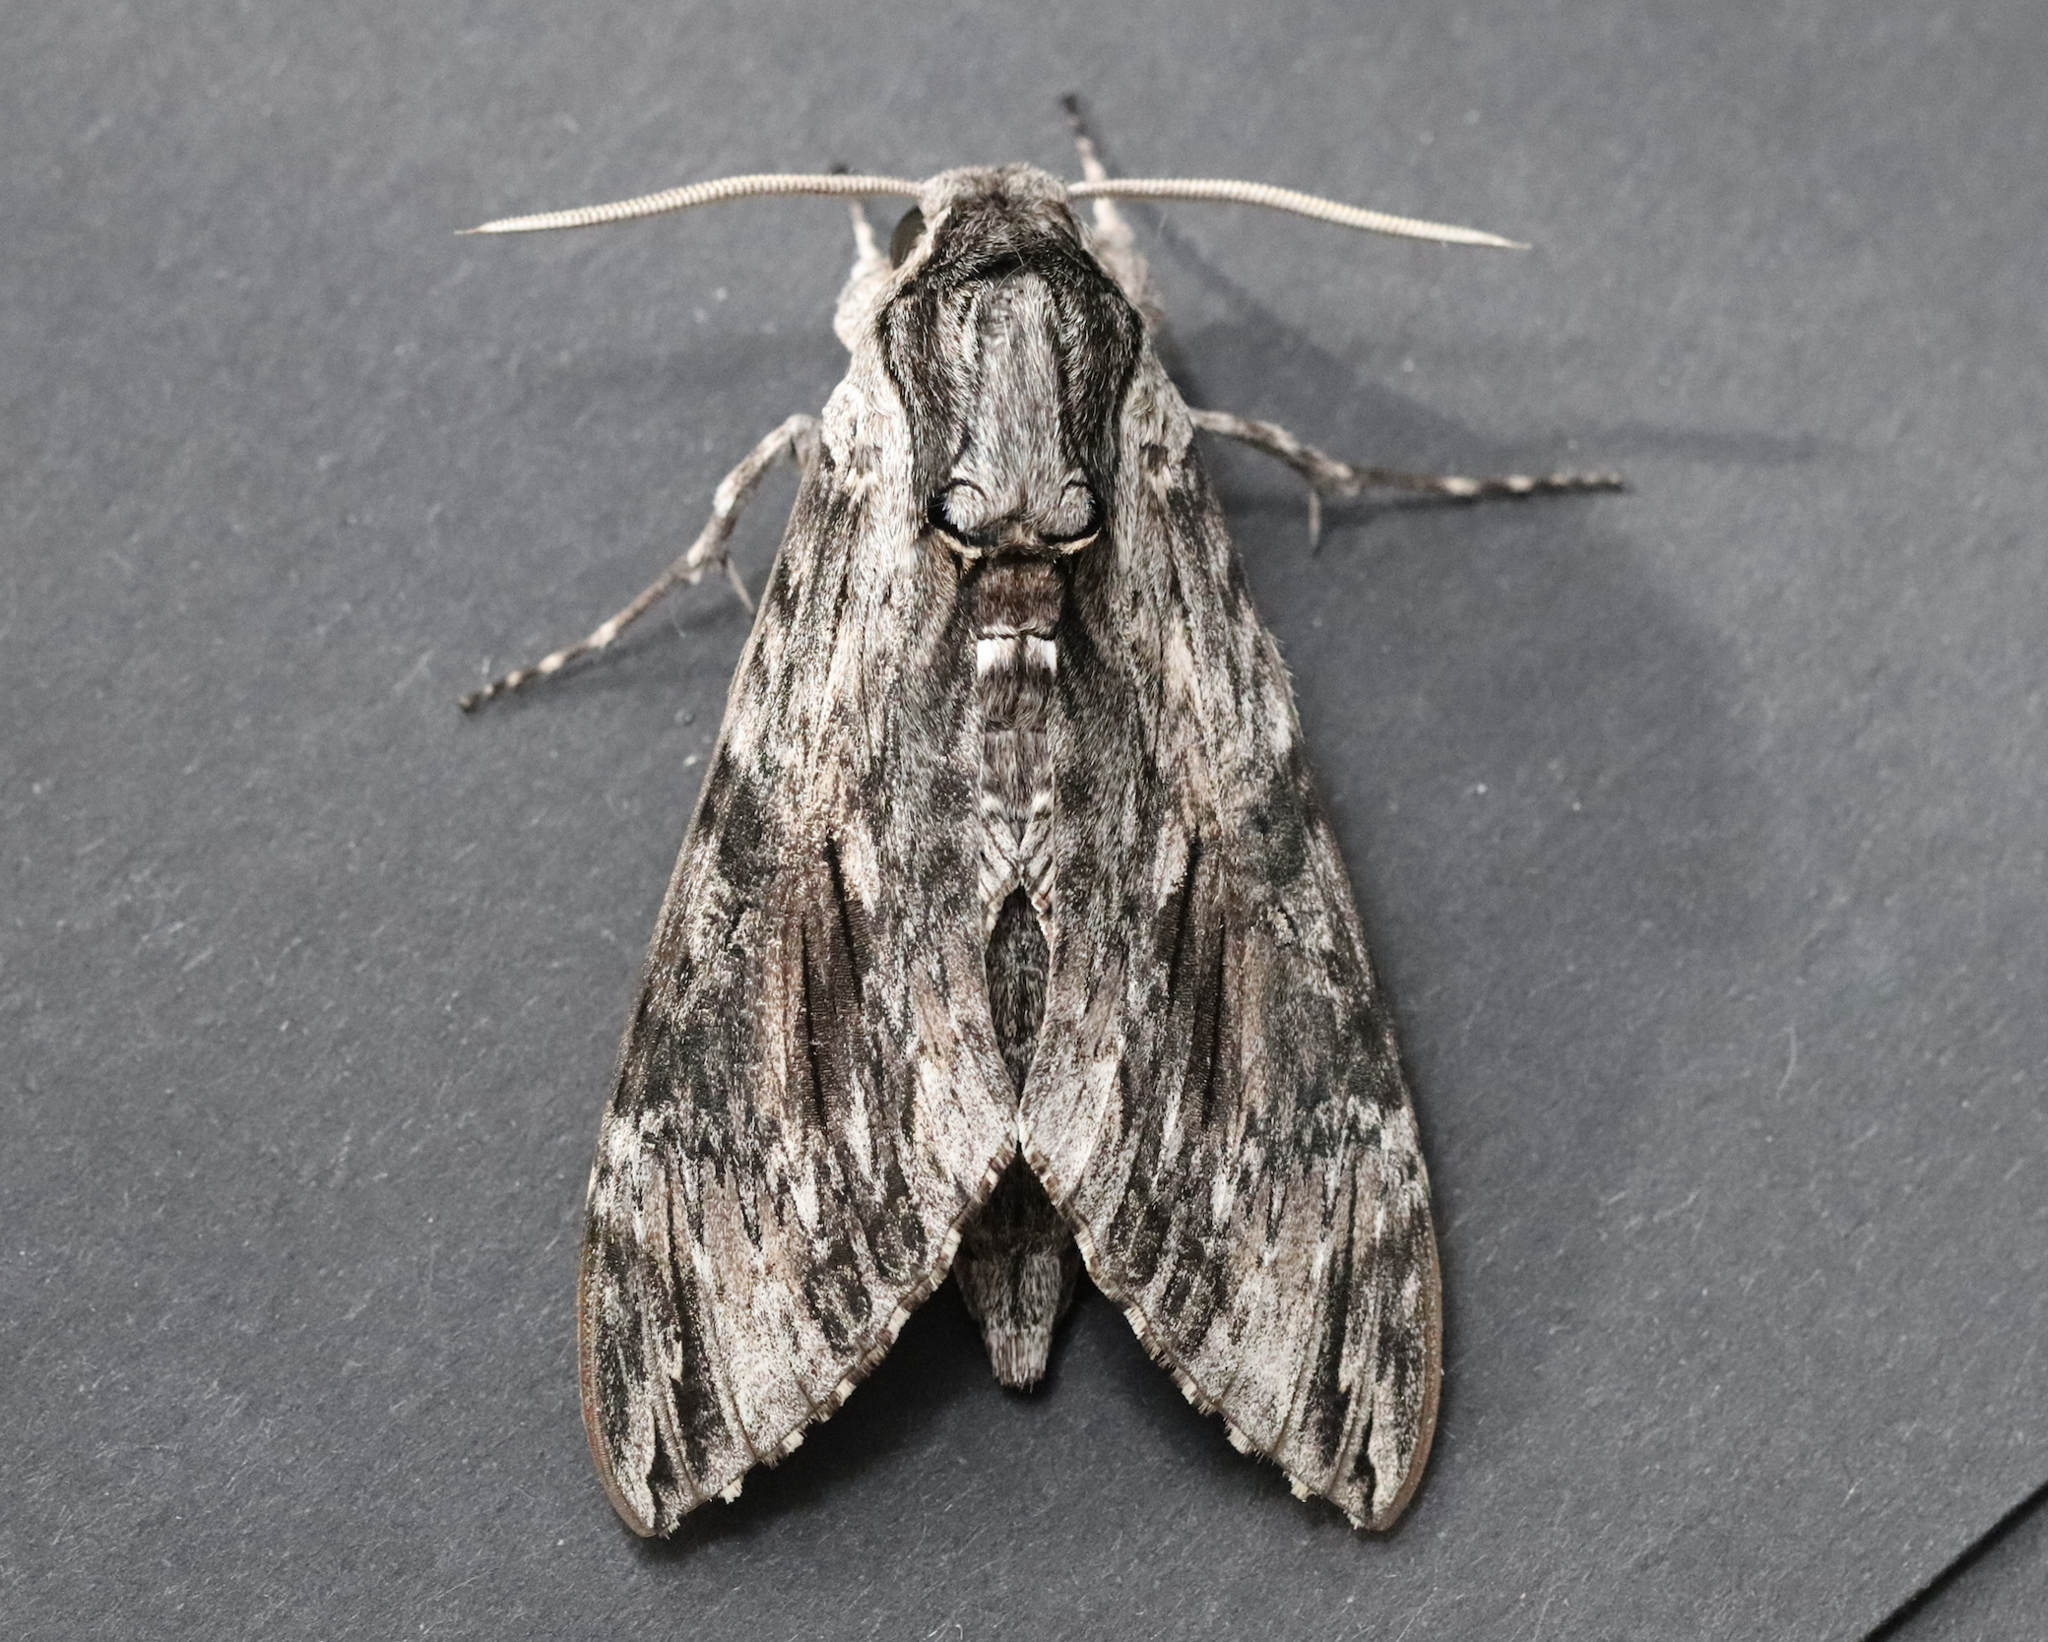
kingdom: Animalia
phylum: Arthropoda
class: Insecta
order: Lepidoptera
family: Sphingidae
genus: Agrius
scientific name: Agrius convolvuli
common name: Convolvulus hawkmoth
